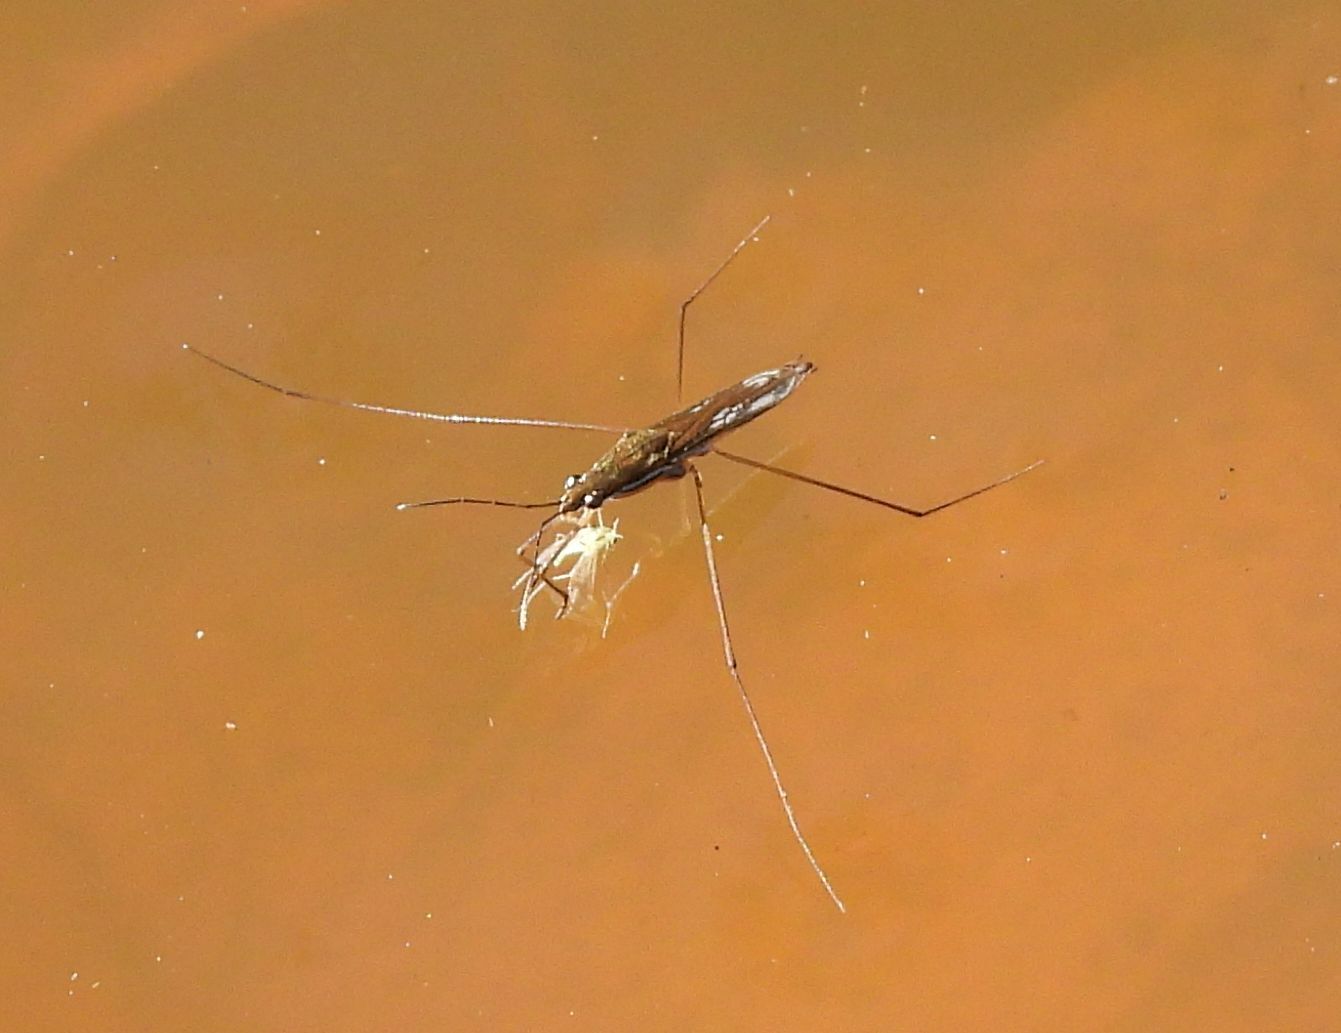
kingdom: Animalia
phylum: Arthropoda
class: Insecta
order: Hemiptera
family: Gerridae
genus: Limnoporus
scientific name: Limnoporus canaliculatus
